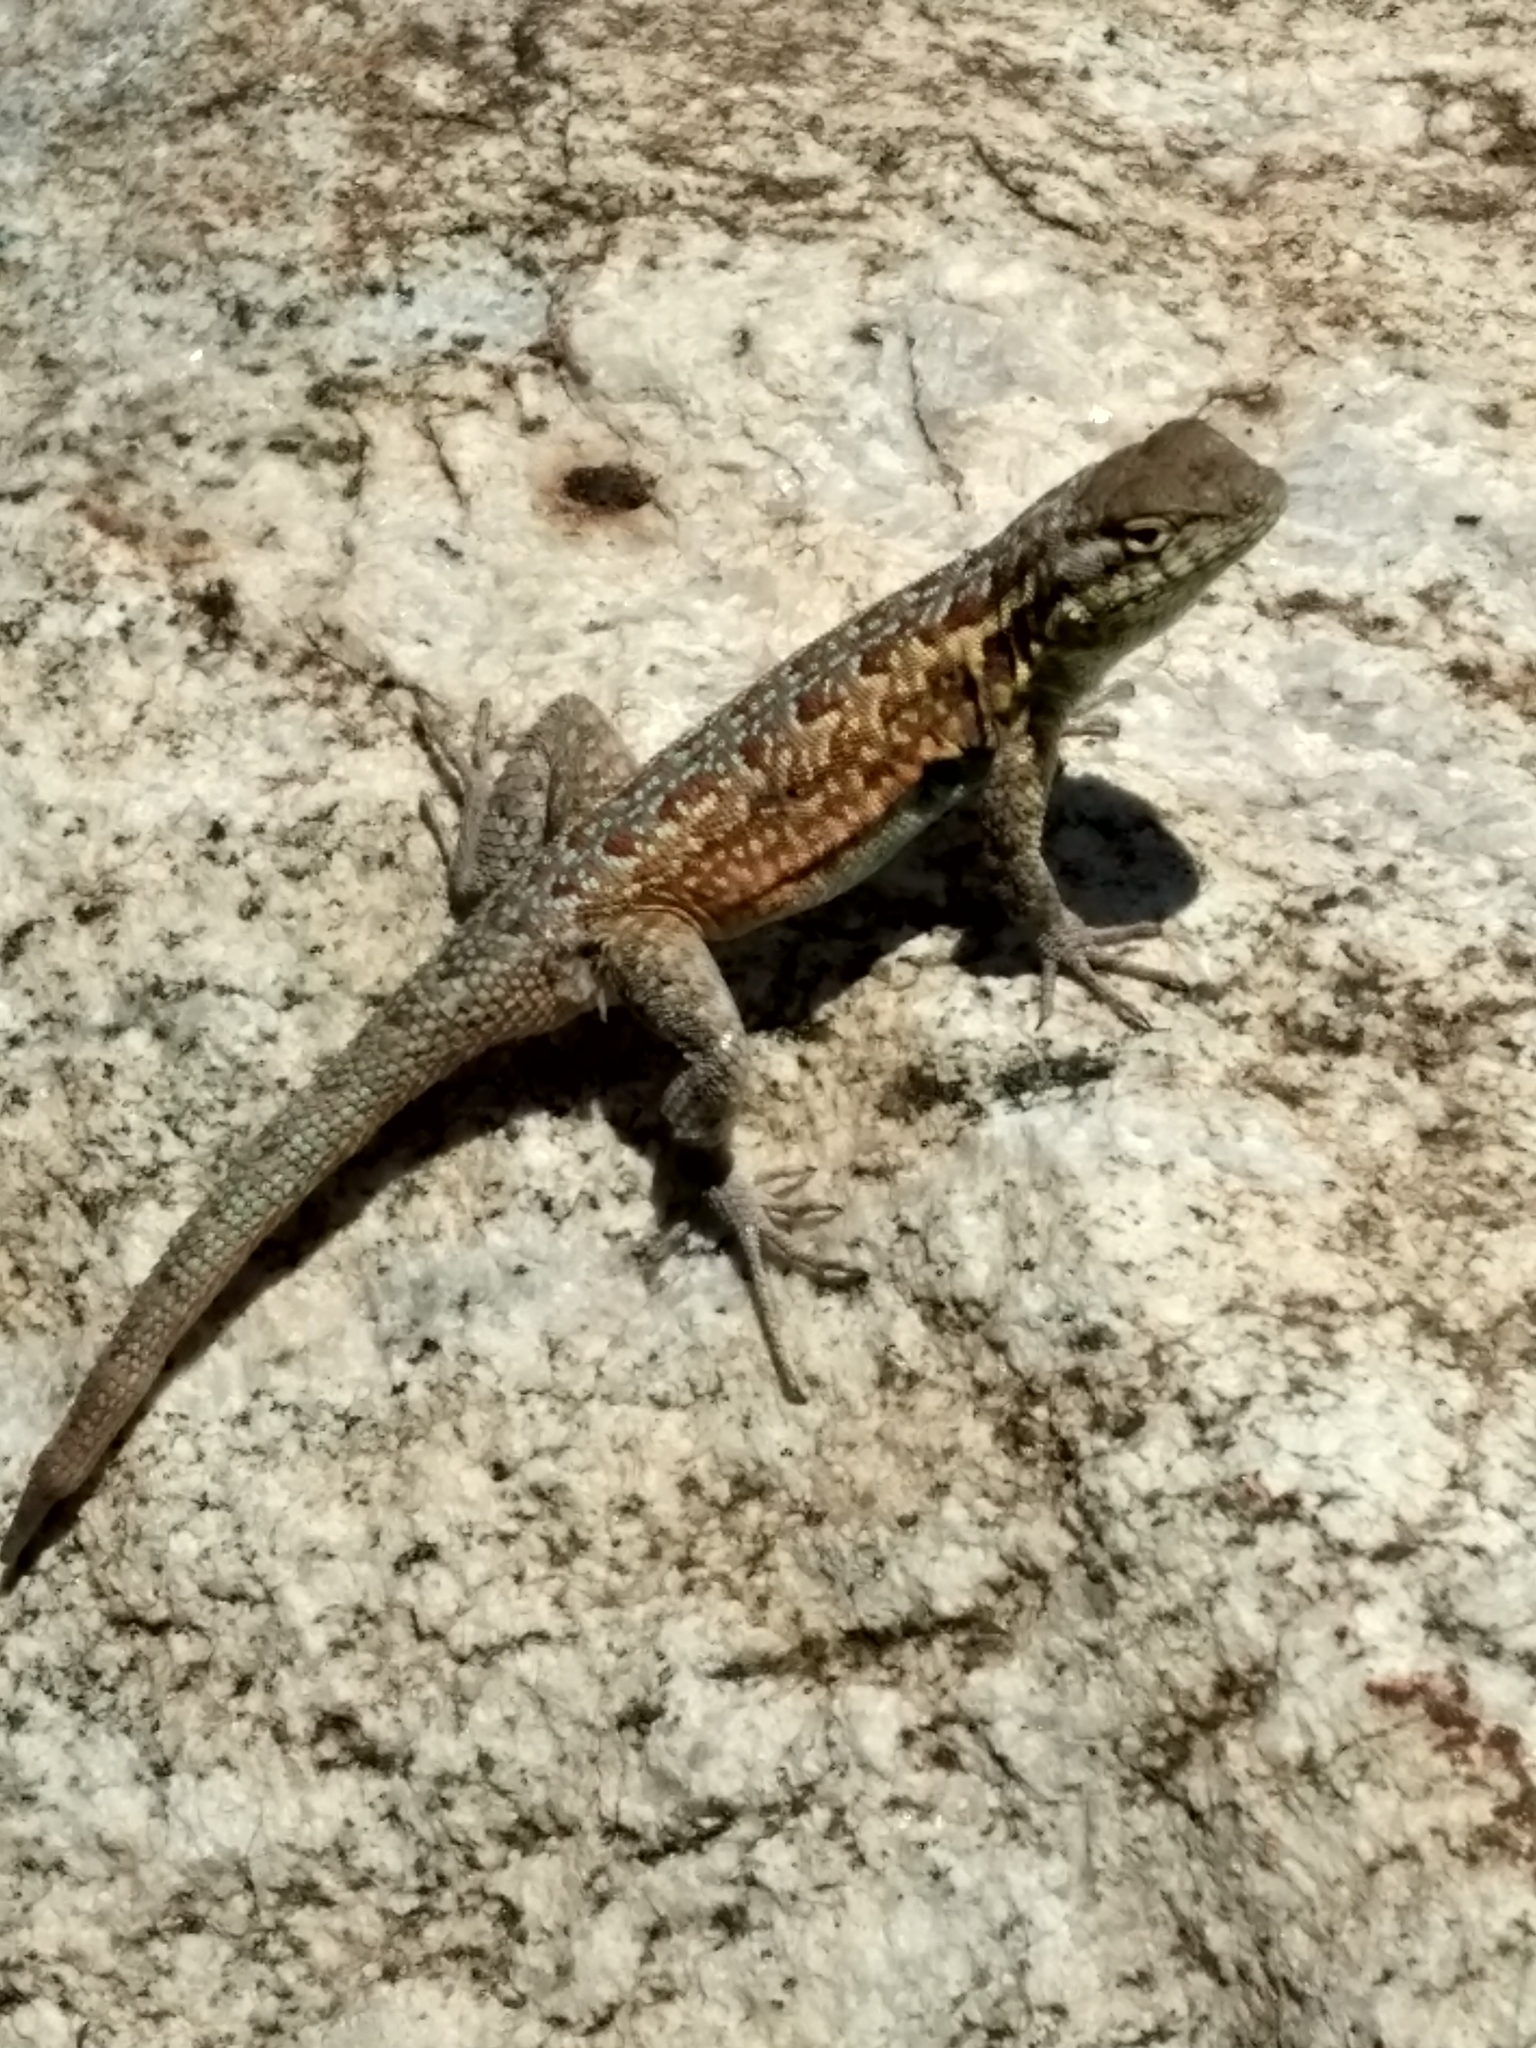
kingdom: Animalia
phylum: Chordata
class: Squamata
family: Phrynosomatidae
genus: Uta
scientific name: Uta stansburiana
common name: Side-blotched lizard
